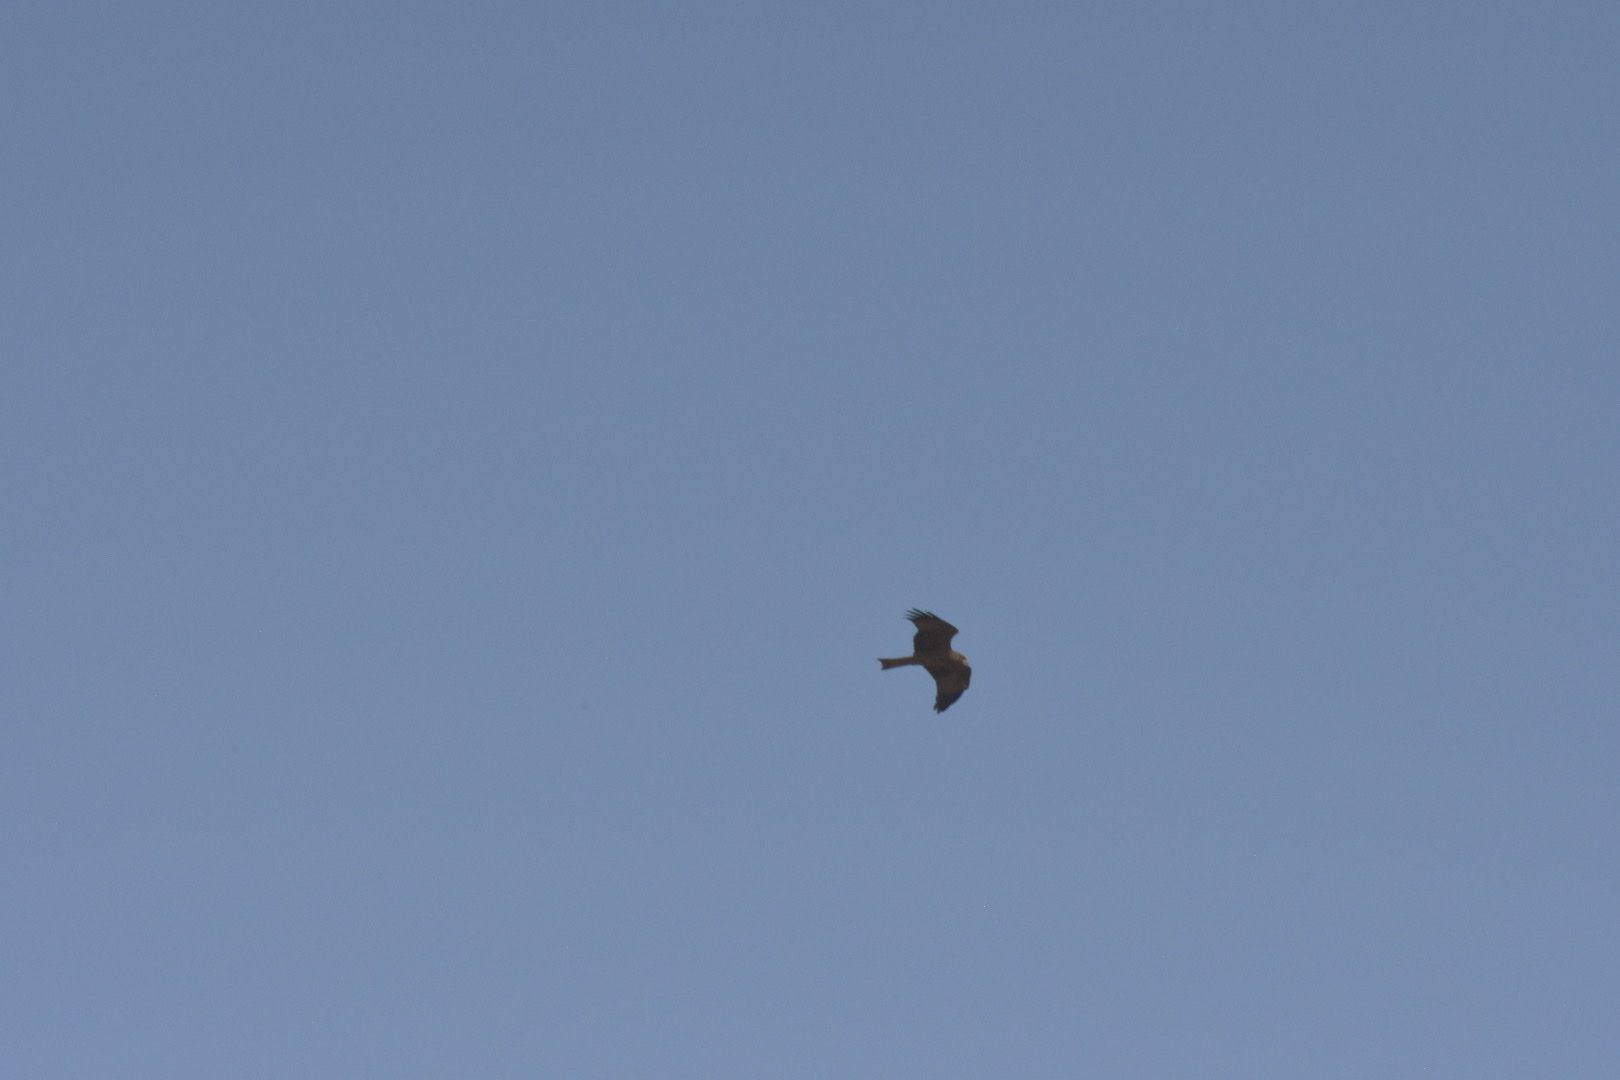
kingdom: Animalia
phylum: Chordata
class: Aves
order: Accipitriformes
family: Accipitridae
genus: Milvus
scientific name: Milvus migrans
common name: Black kite
